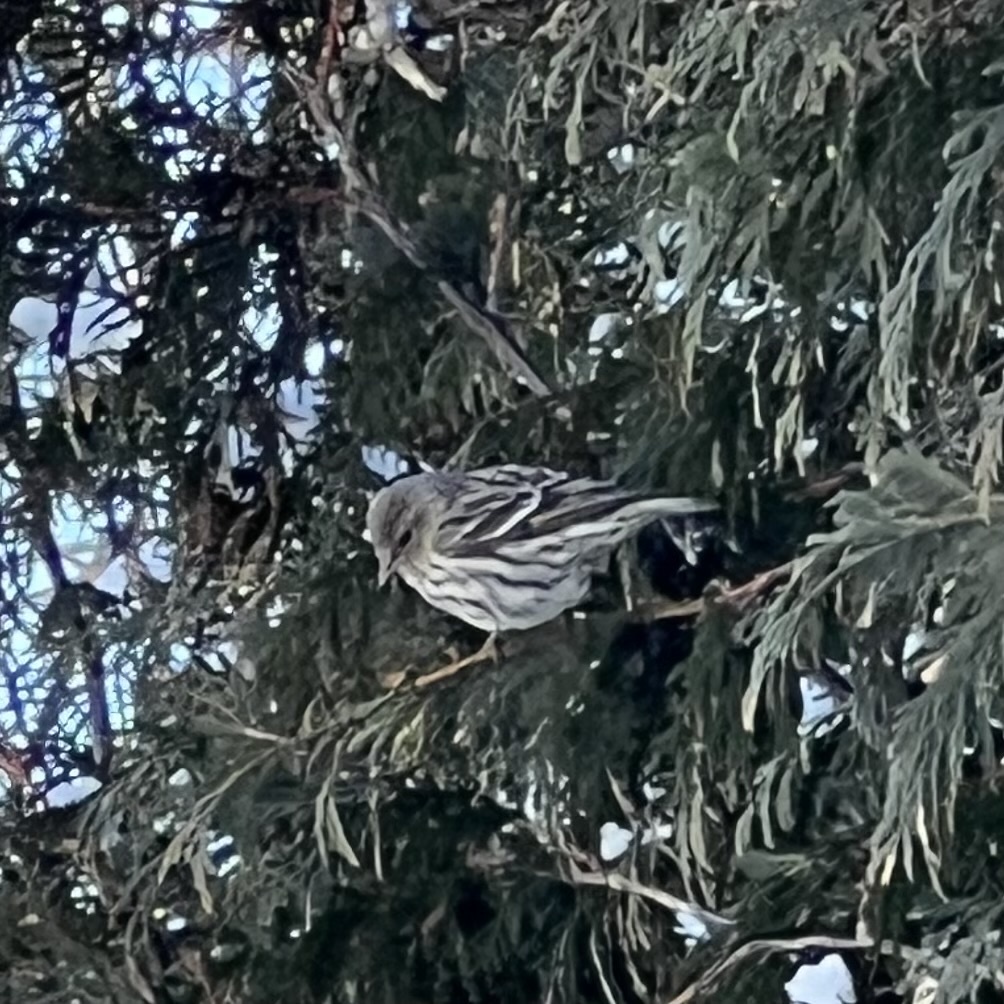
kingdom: Animalia
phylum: Chordata
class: Aves
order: Passeriformes
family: Fringillidae
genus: Spinus
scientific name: Spinus pinus
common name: Pine siskin
